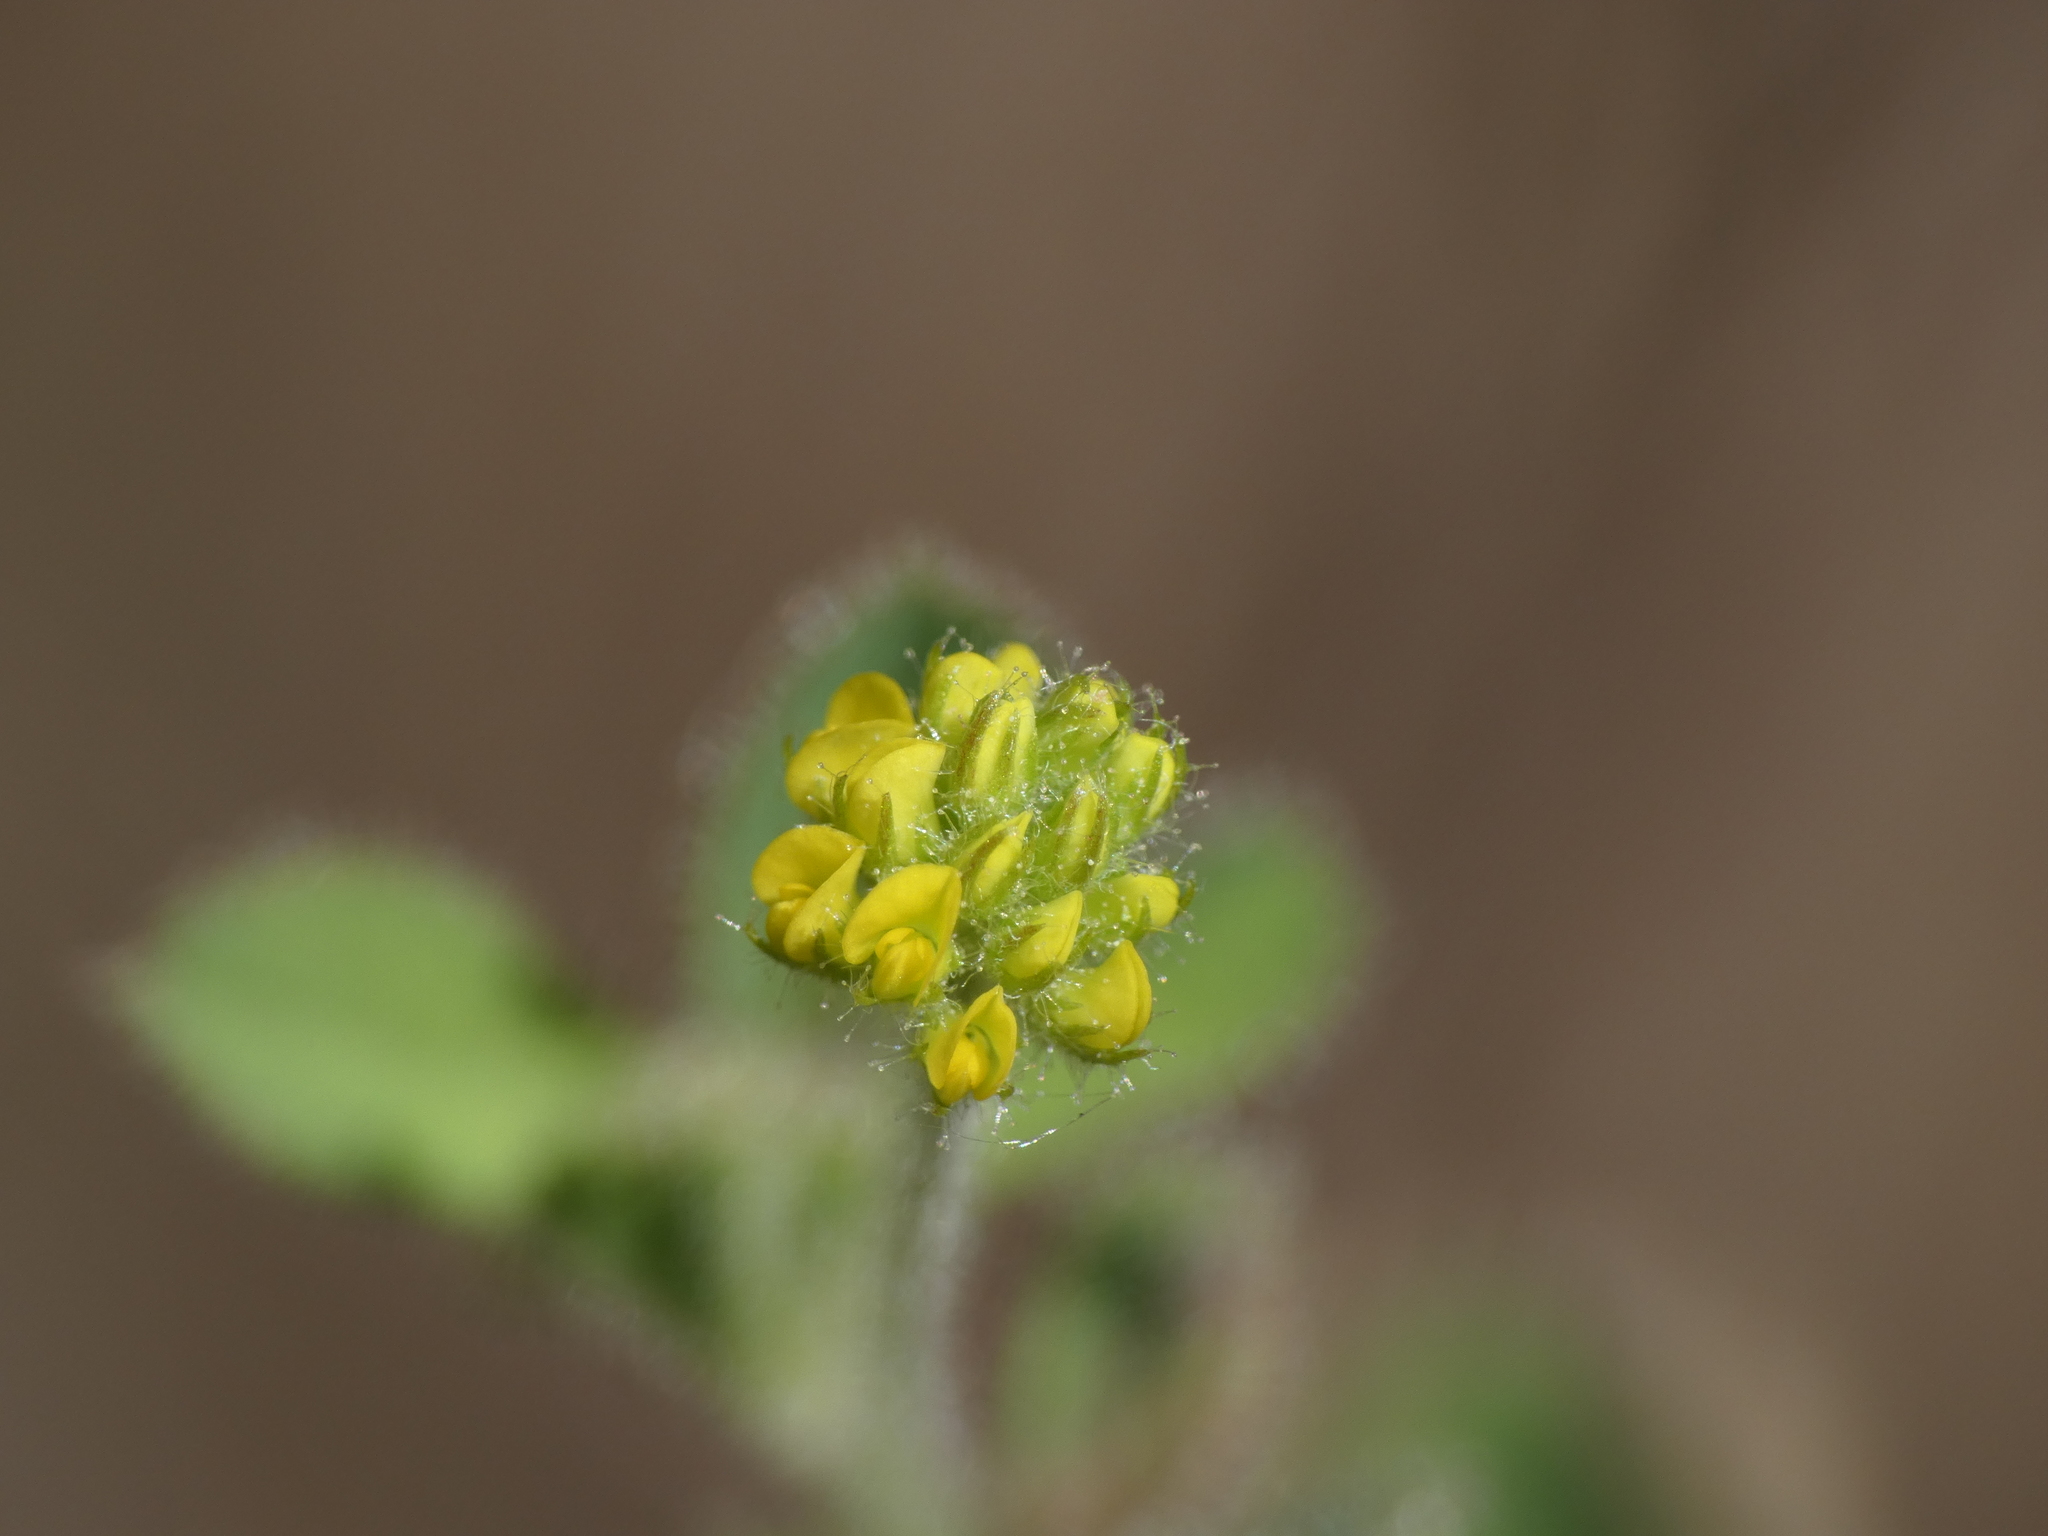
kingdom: Plantae
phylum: Tracheophyta
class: Magnoliopsida
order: Fabales
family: Fabaceae
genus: Medicago
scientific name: Medicago lupulina
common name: Black medick
